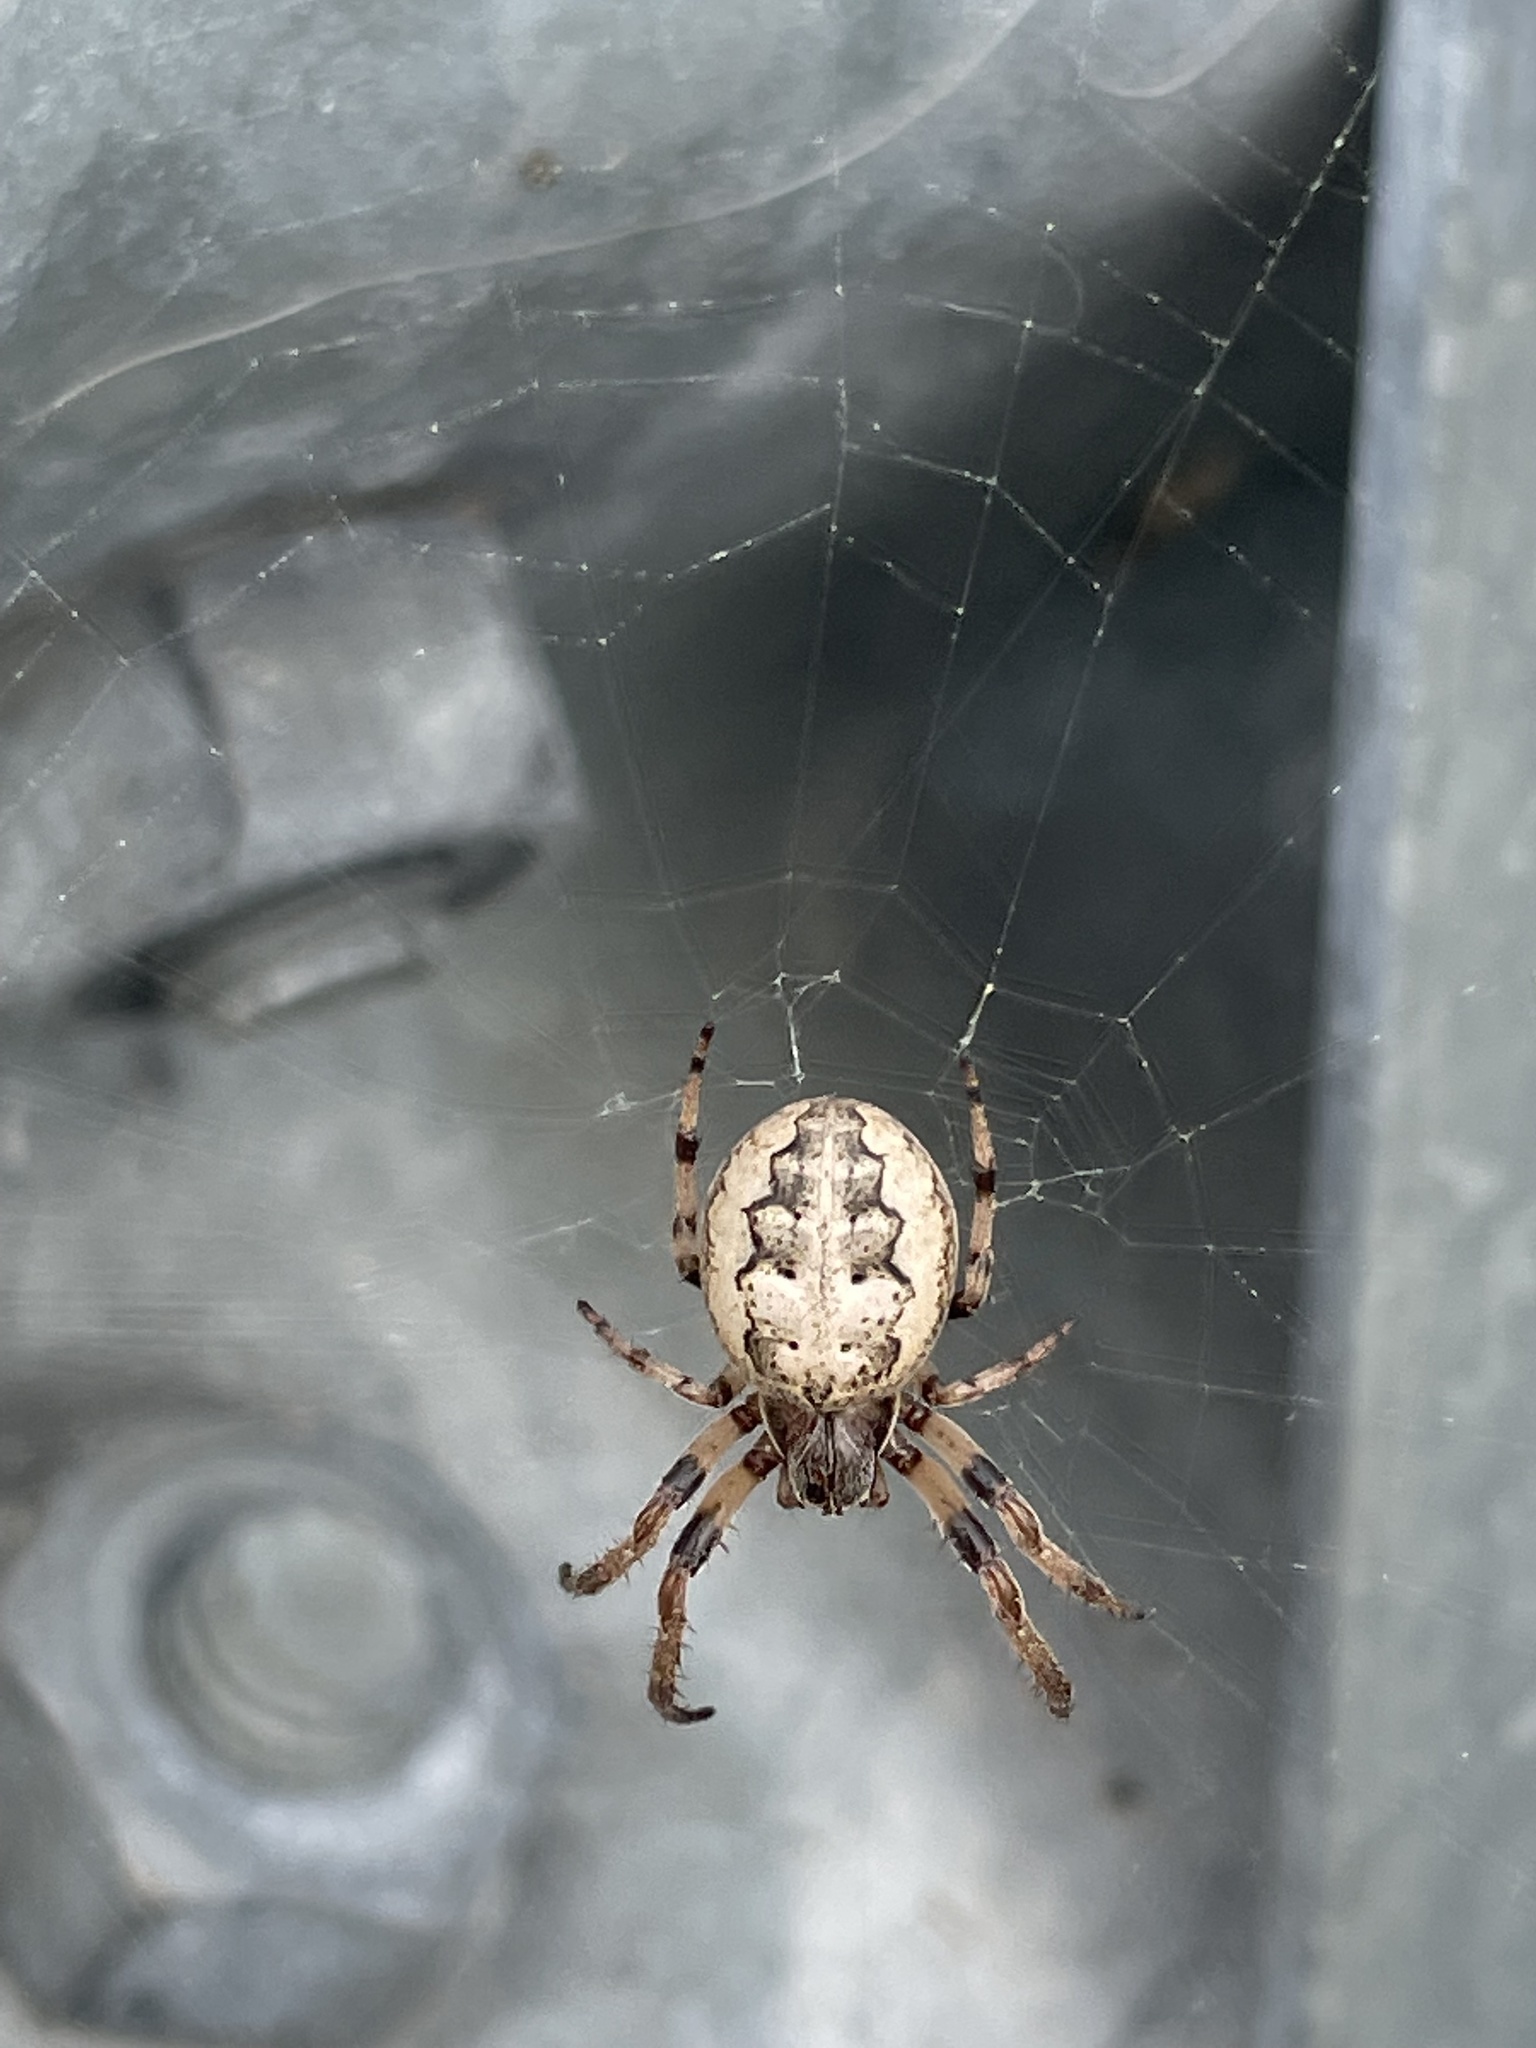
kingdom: Animalia
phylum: Arthropoda
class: Arachnida
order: Araneae
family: Araneidae
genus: Larinioides
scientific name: Larinioides cornutus
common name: Furrow orbweaver
